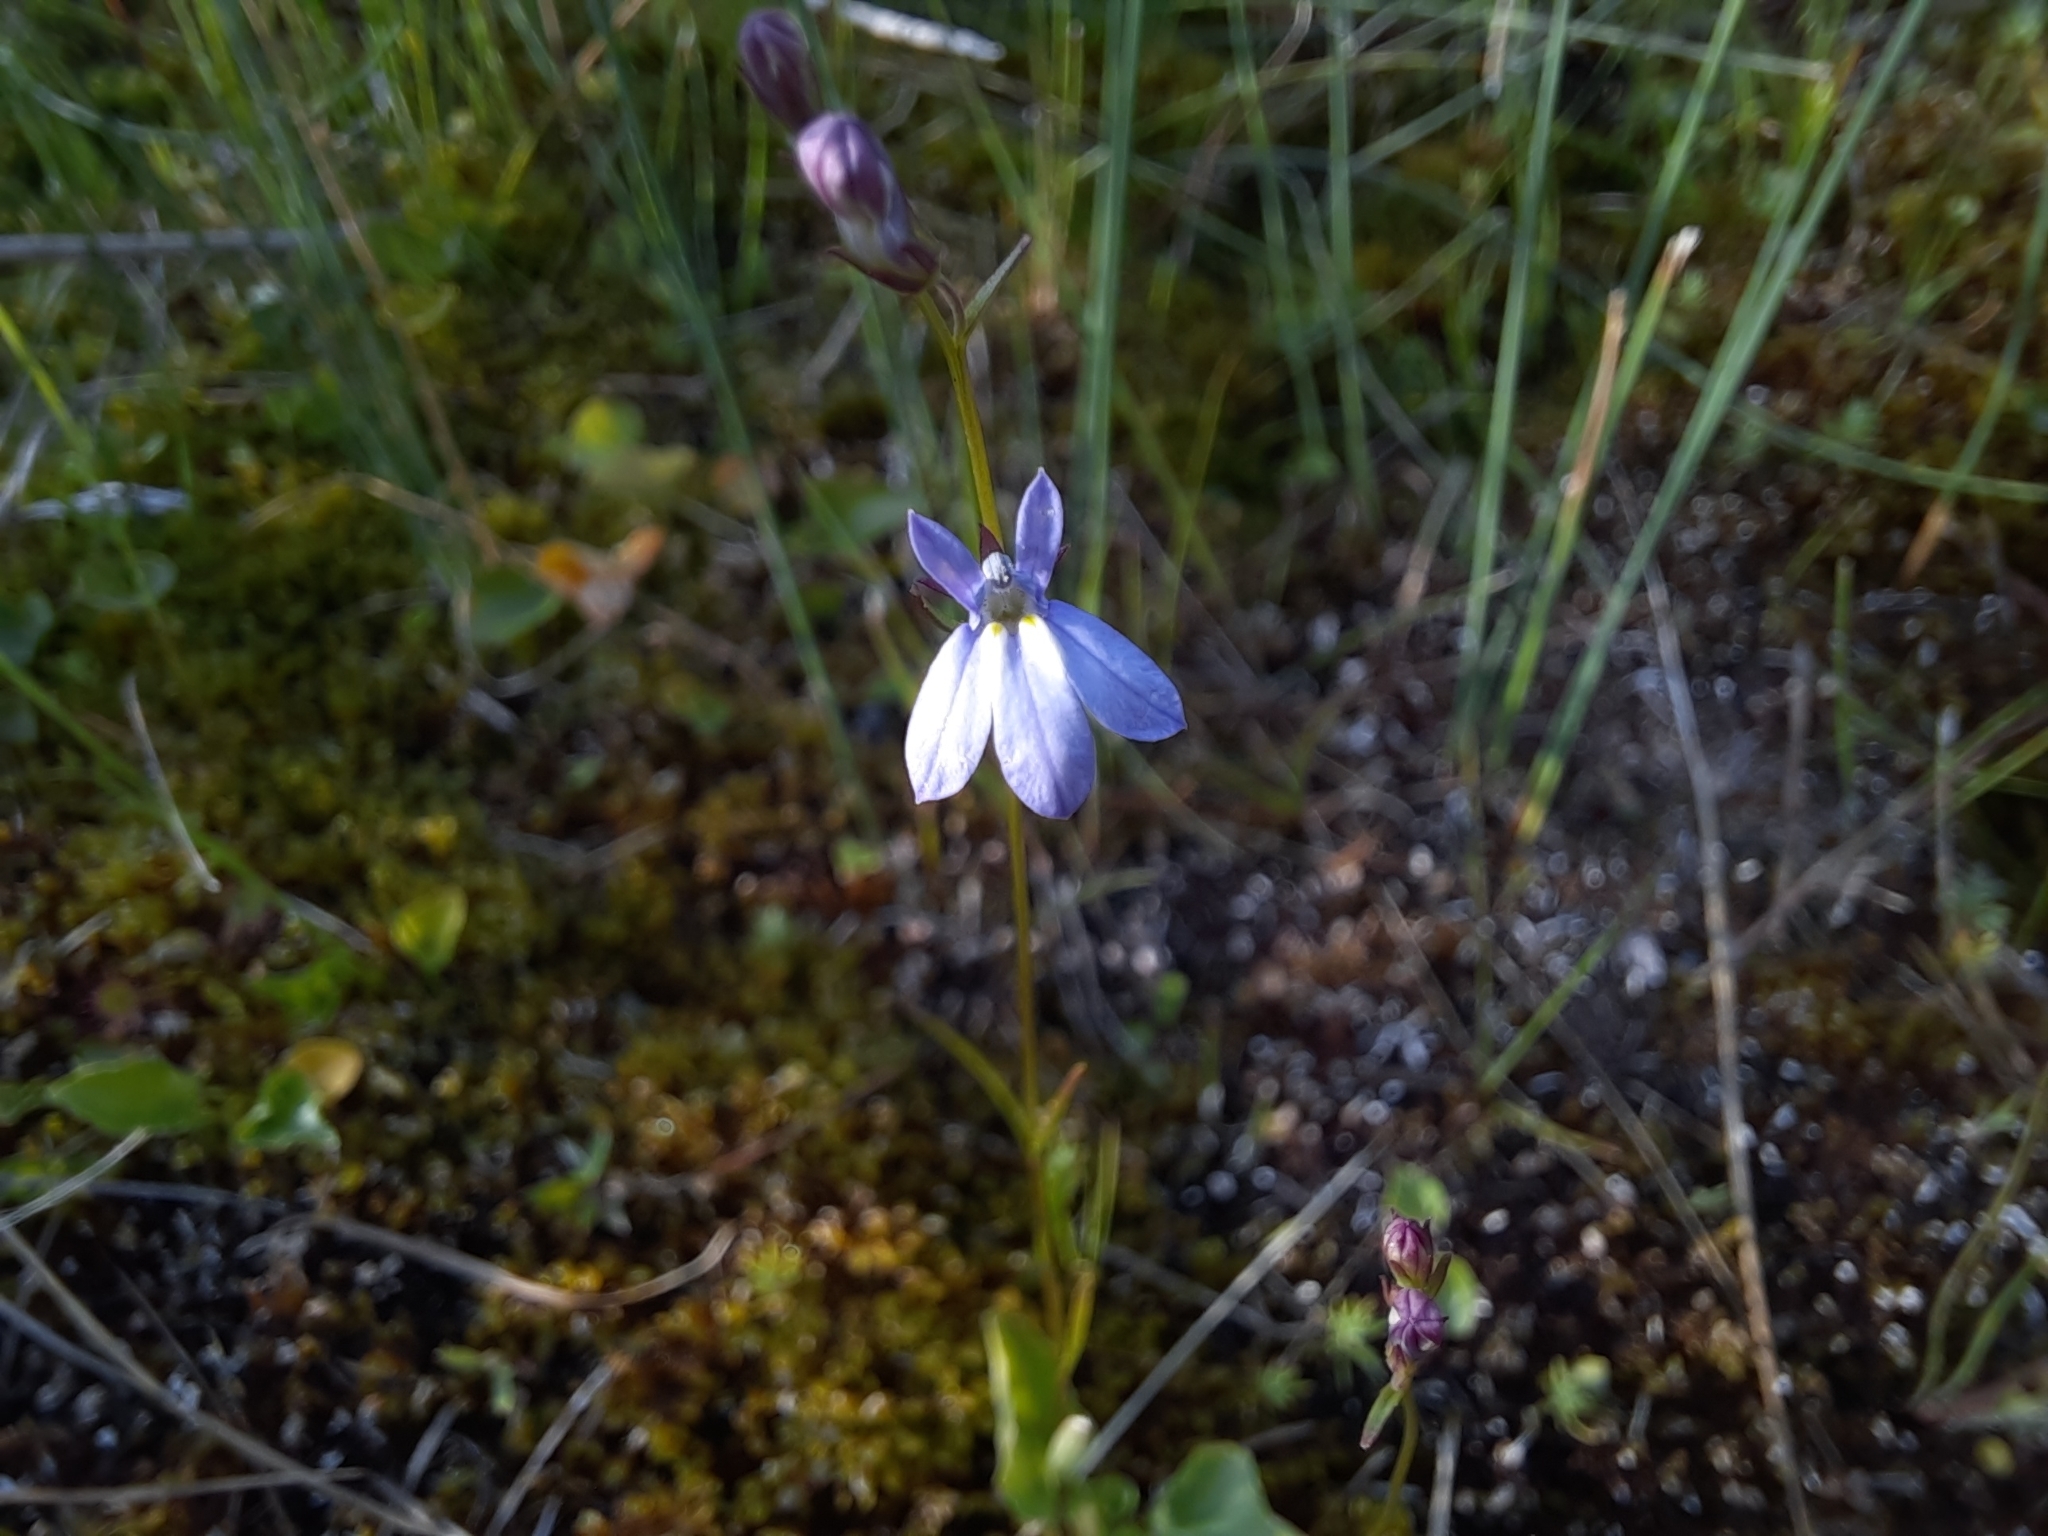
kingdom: Plantae
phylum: Tracheophyta
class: Magnoliopsida
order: Asterales
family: Campanulaceae
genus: Lobelia
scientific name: Lobelia kalmii
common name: Kalm's lobelia
